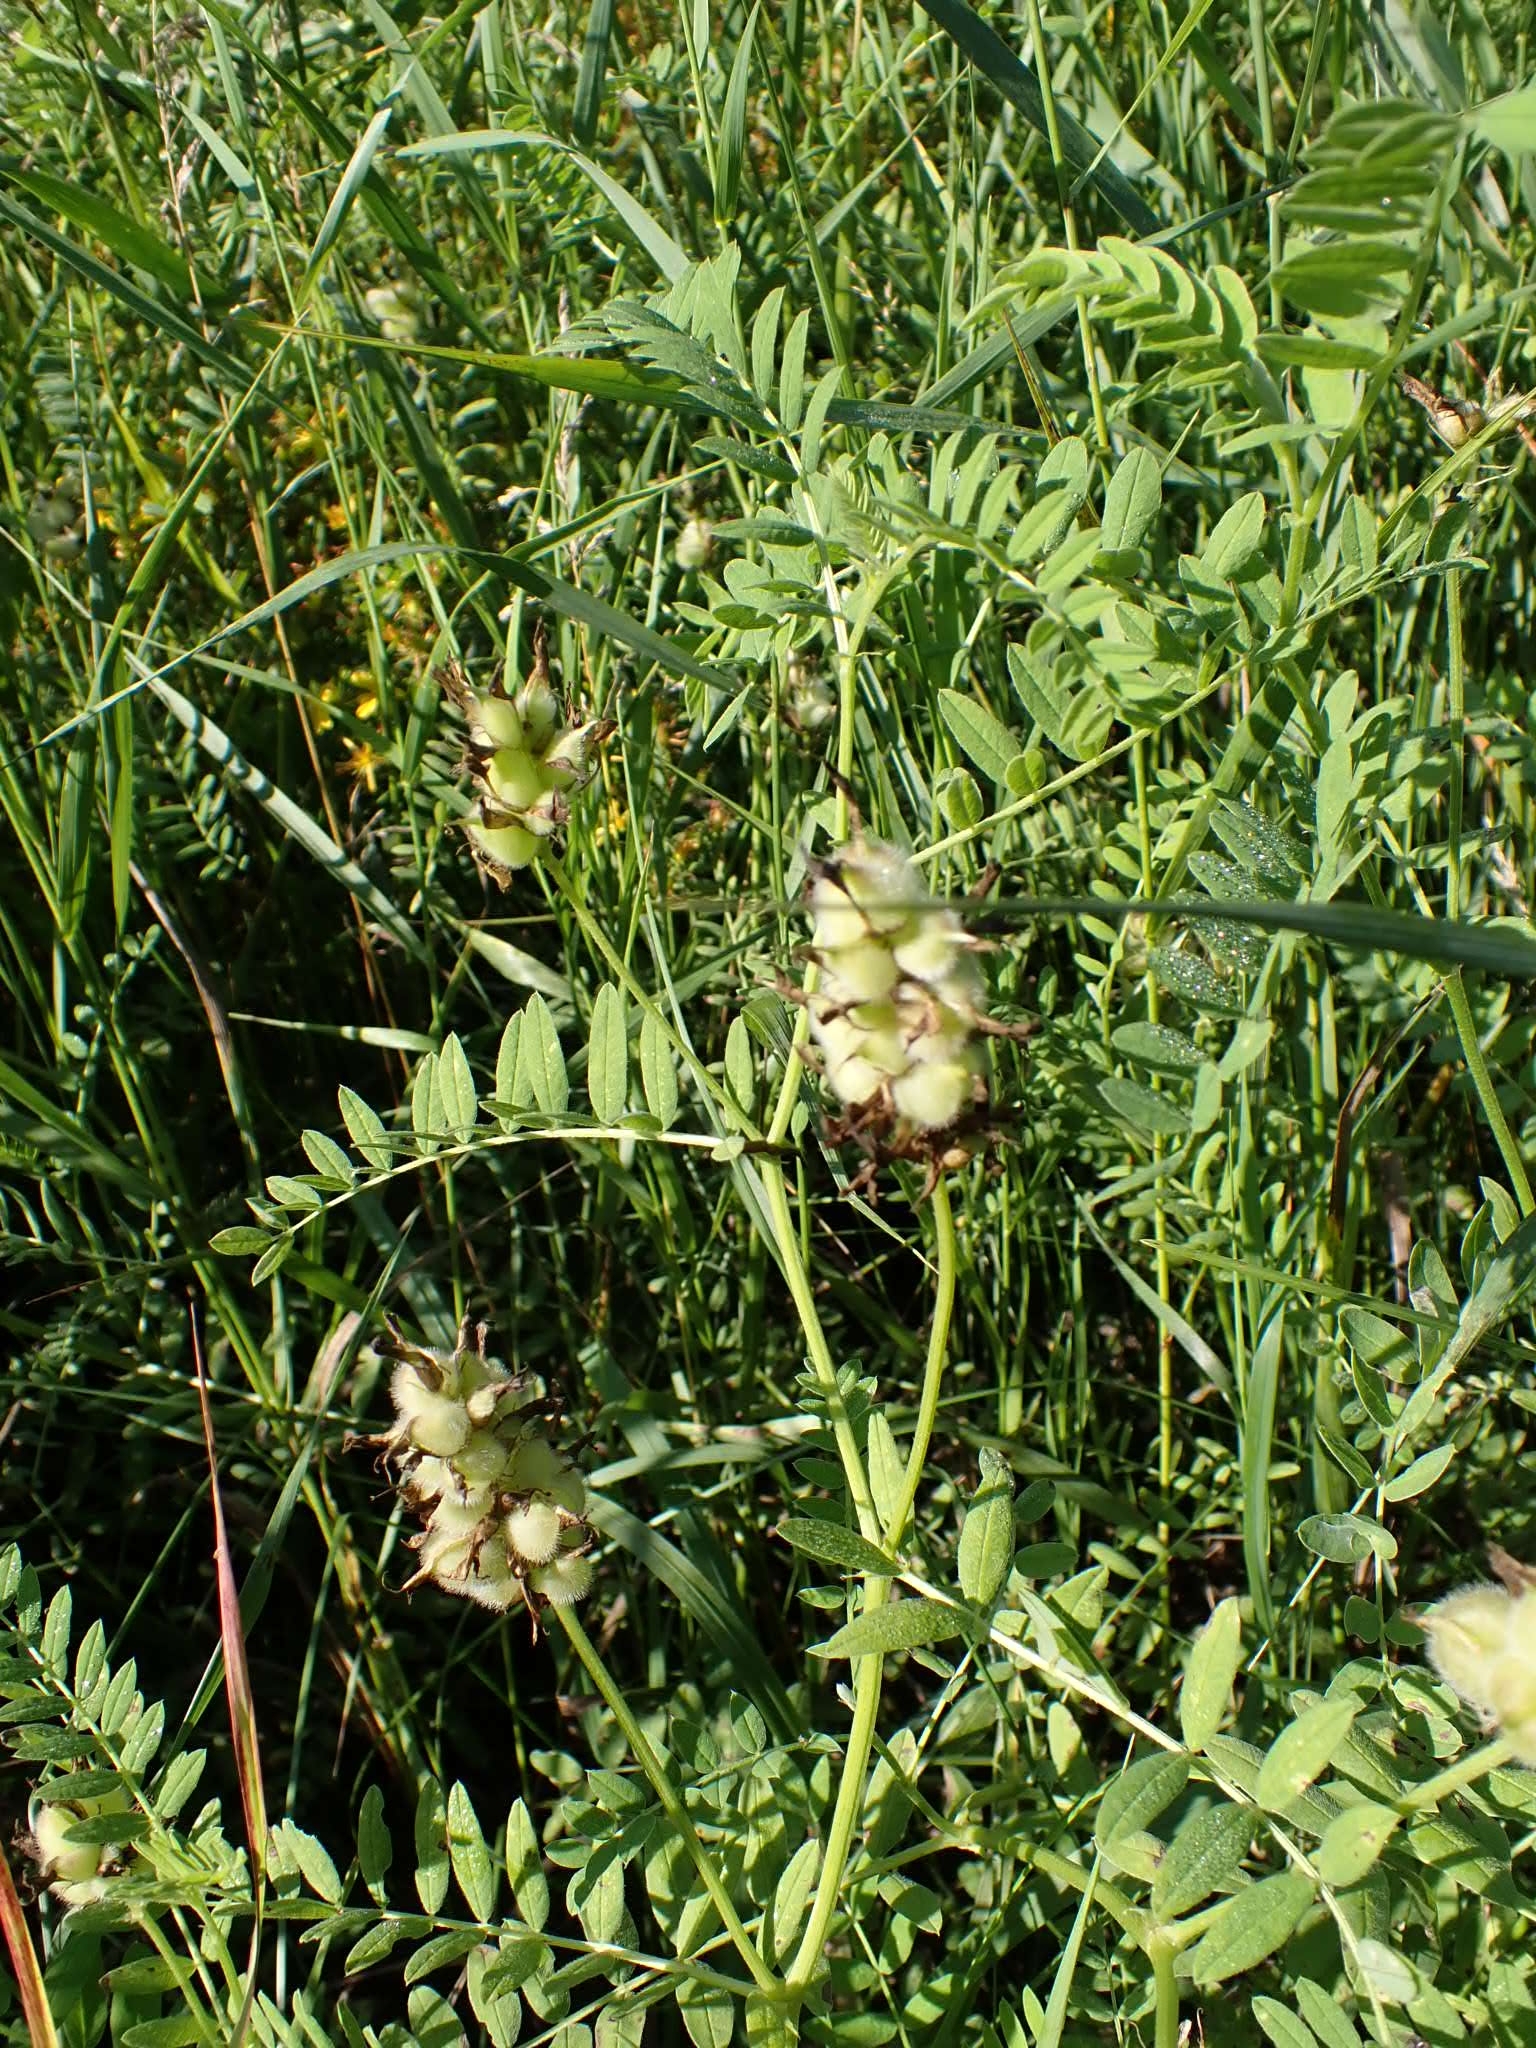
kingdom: Plantae
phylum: Tracheophyta
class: Magnoliopsida
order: Fabales
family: Fabaceae
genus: Astragalus
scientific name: Astragalus cicer
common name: Chick-pea milk-vetch
